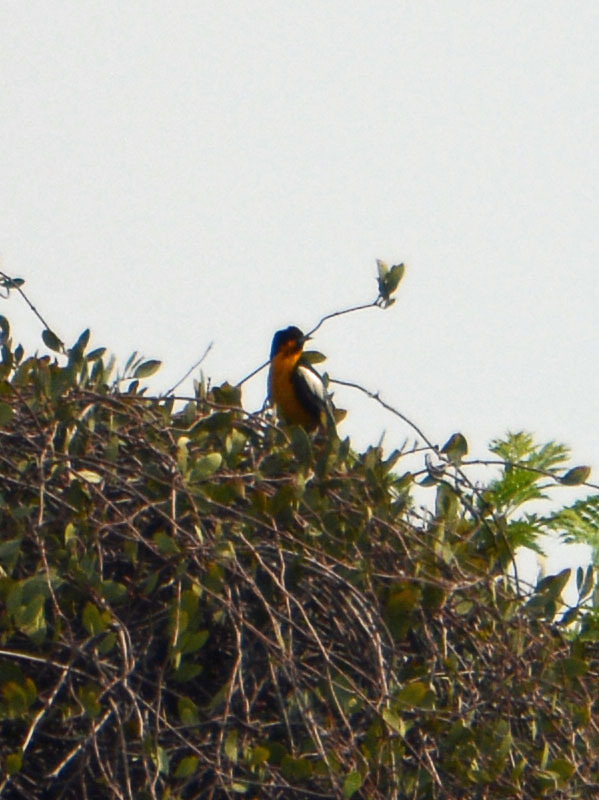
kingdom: Animalia
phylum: Chordata
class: Aves
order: Passeriformes
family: Icteridae
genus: Icterus
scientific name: Icterus abeillei
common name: Black-backed oriole
